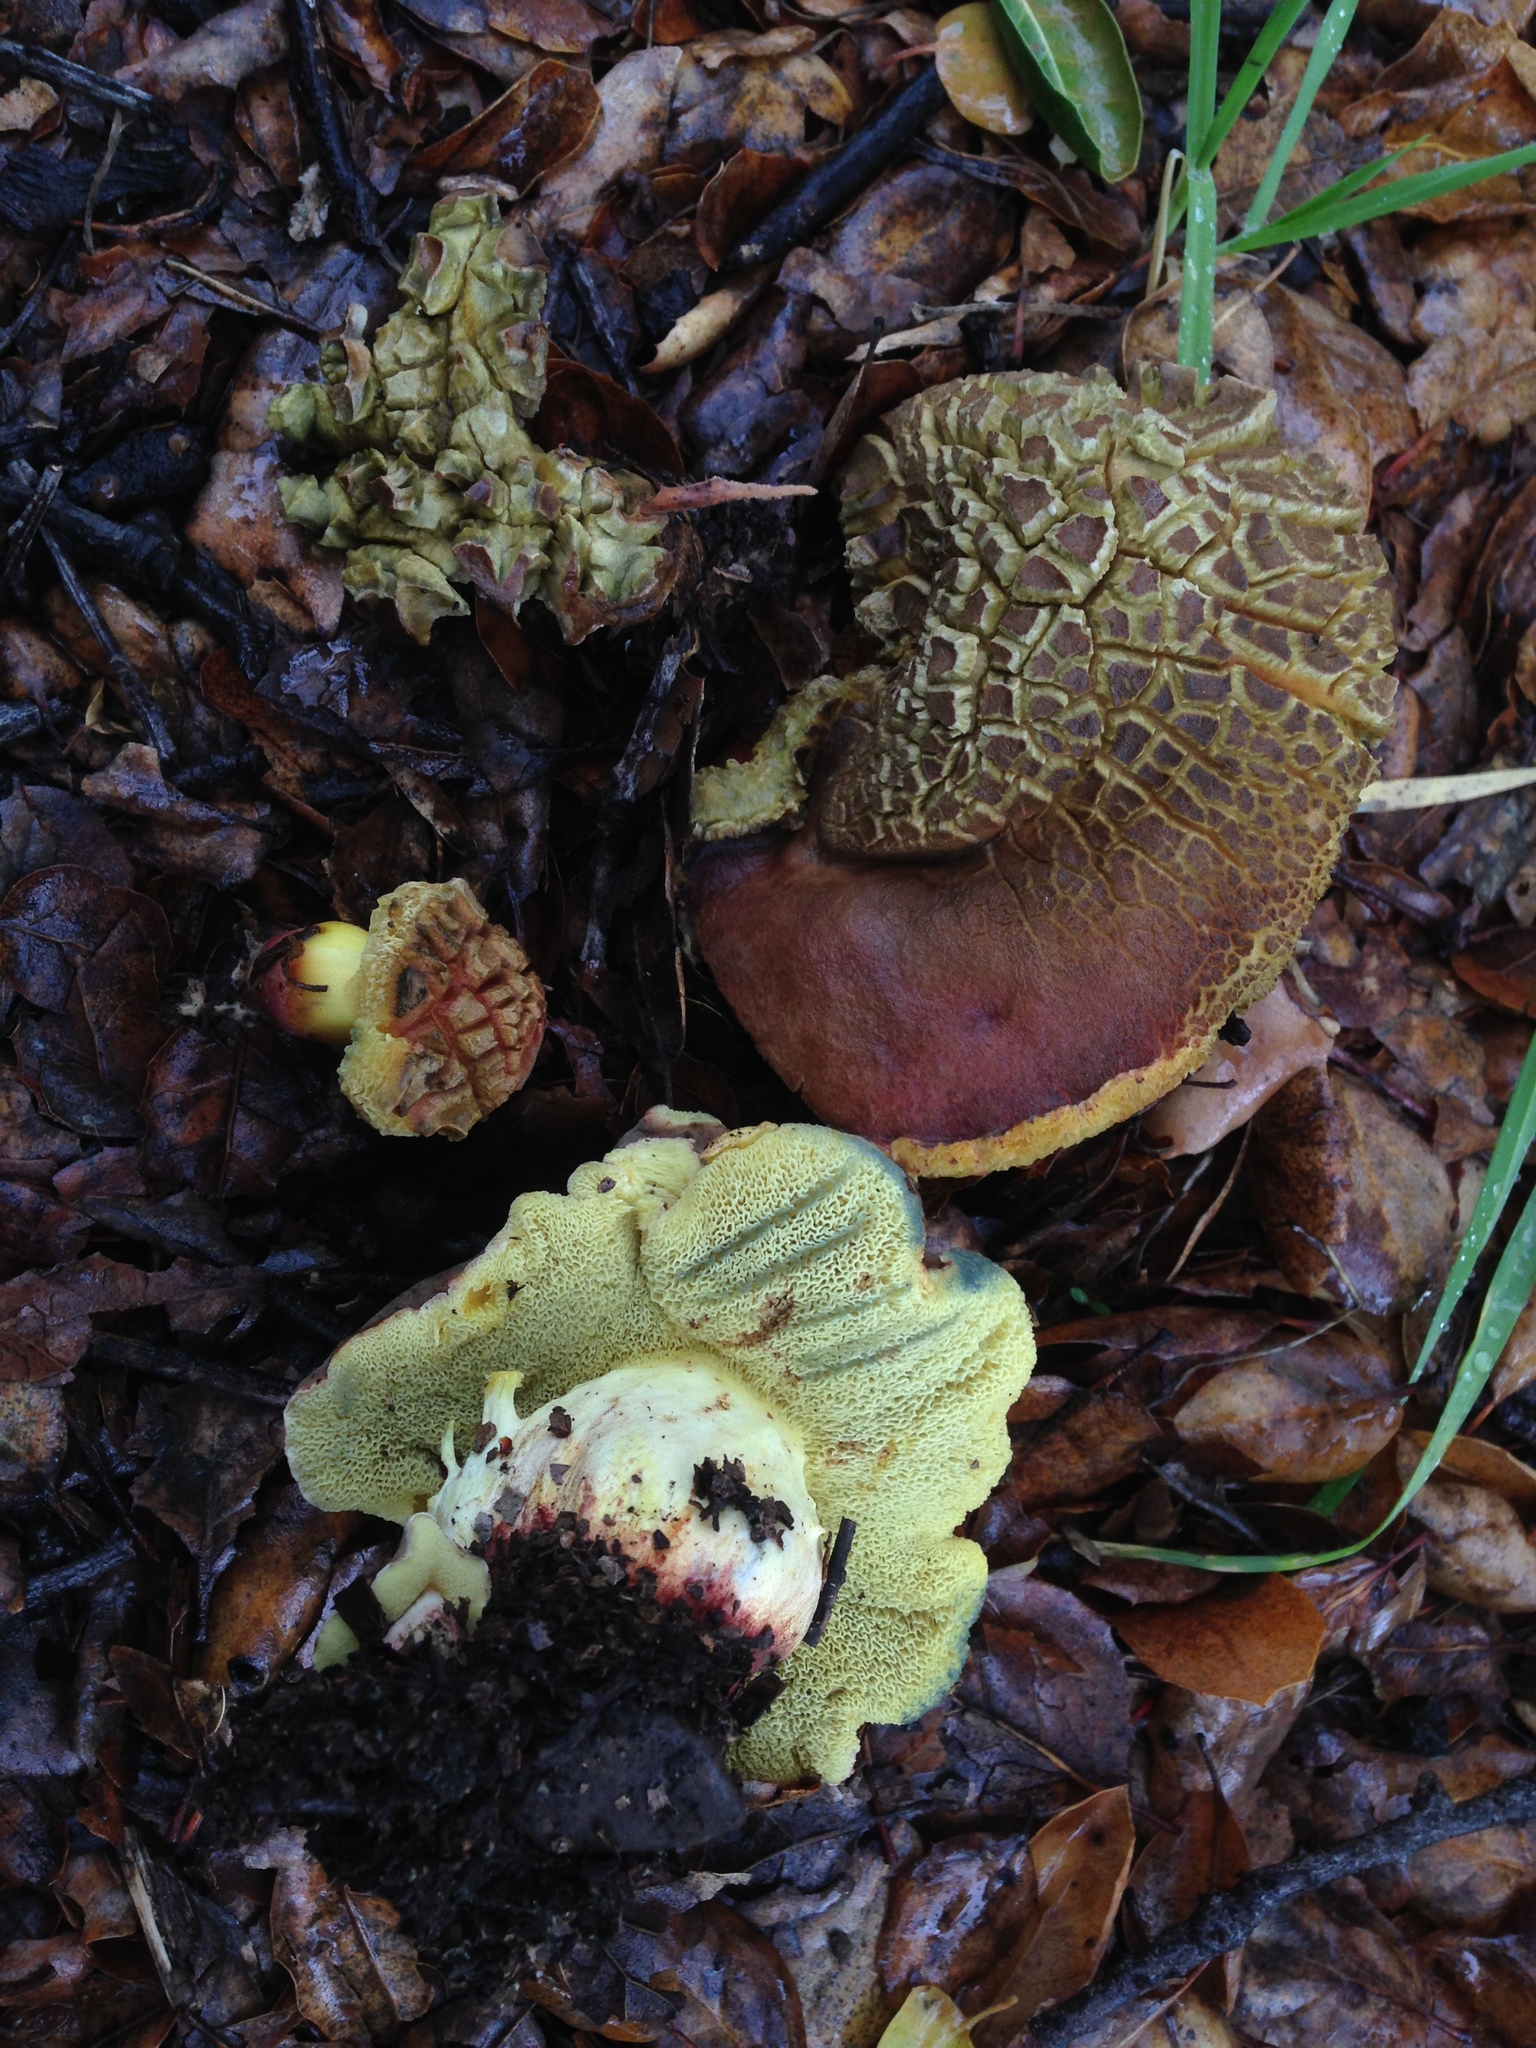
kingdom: Fungi
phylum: Basidiomycota
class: Agaricomycetes
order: Boletales
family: Boletaceae
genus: Xerocomellus
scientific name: Xerocomellus dryophilus
